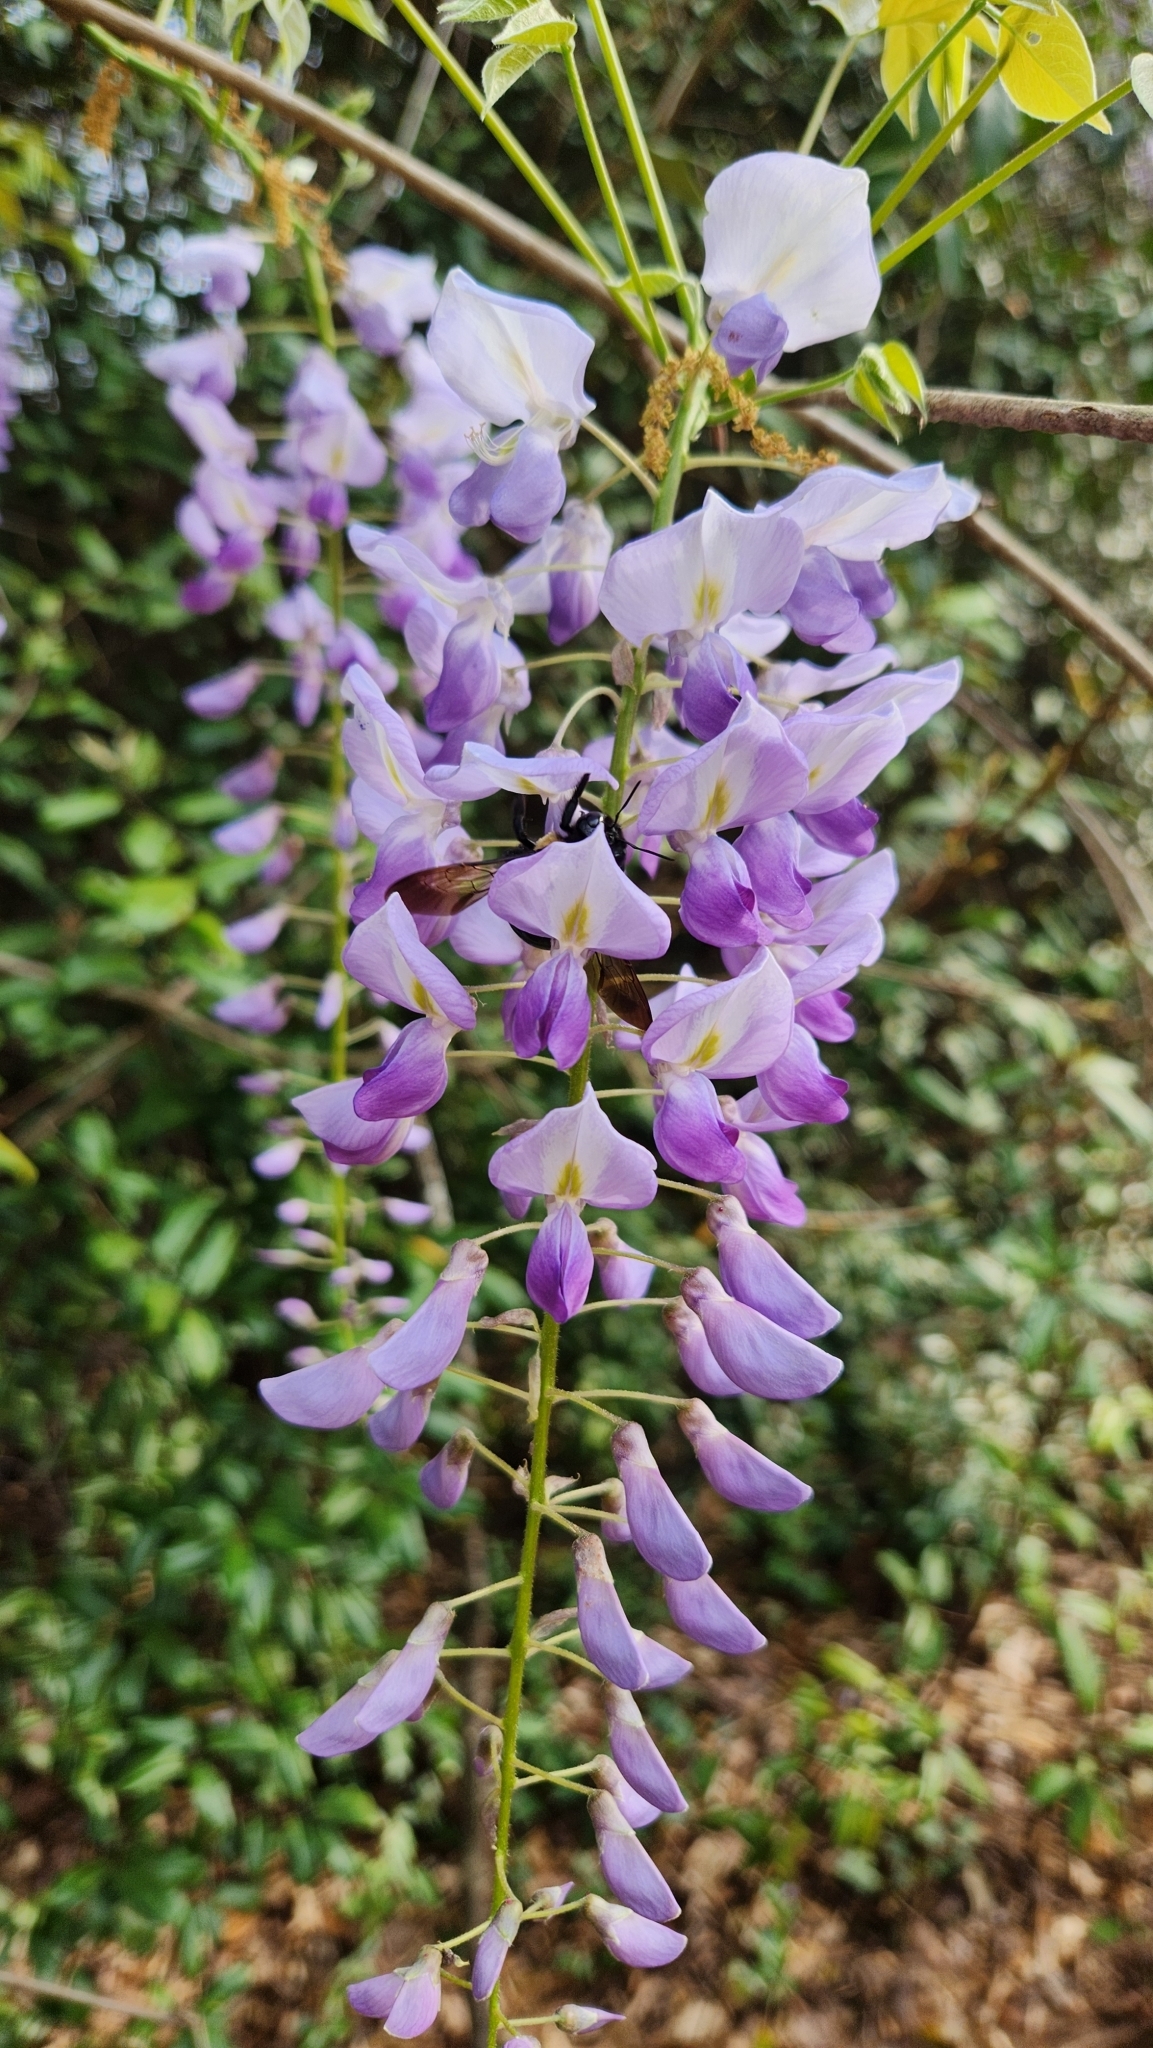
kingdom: Animalia
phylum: Arthropoda
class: Insecta
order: Hymenoptera
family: Apidae
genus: Xylocopa
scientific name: Xylocopa virginica
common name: Carpenter bee
